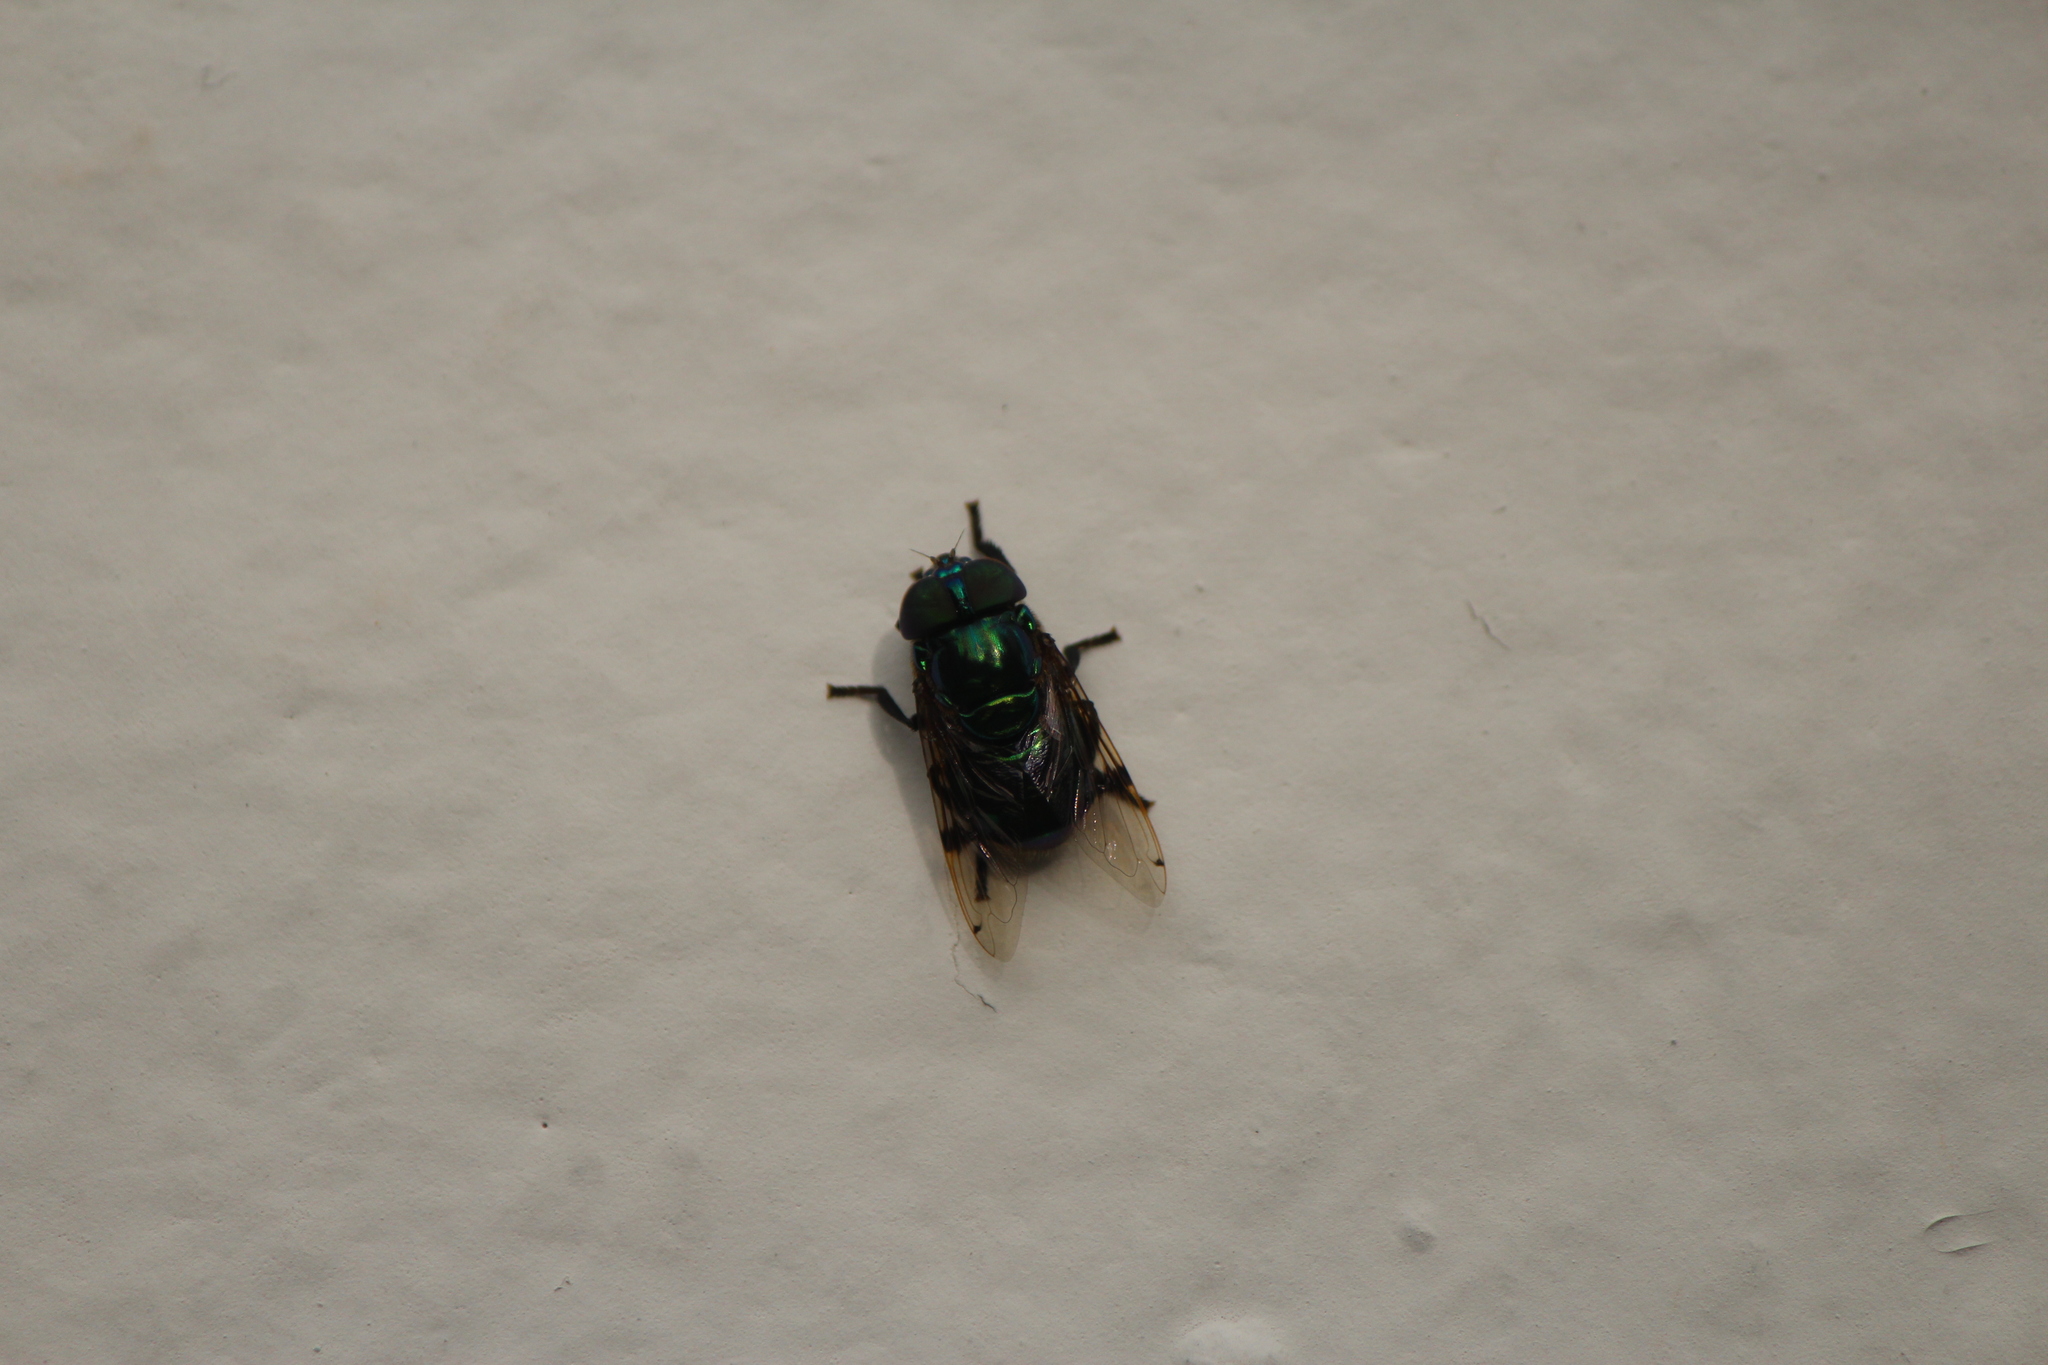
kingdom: Animalia
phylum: Arthropoda
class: Insecta
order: Diptera
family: Syrphidae
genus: Ornidia
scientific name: Ornidia obesa
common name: Syrphid fly
